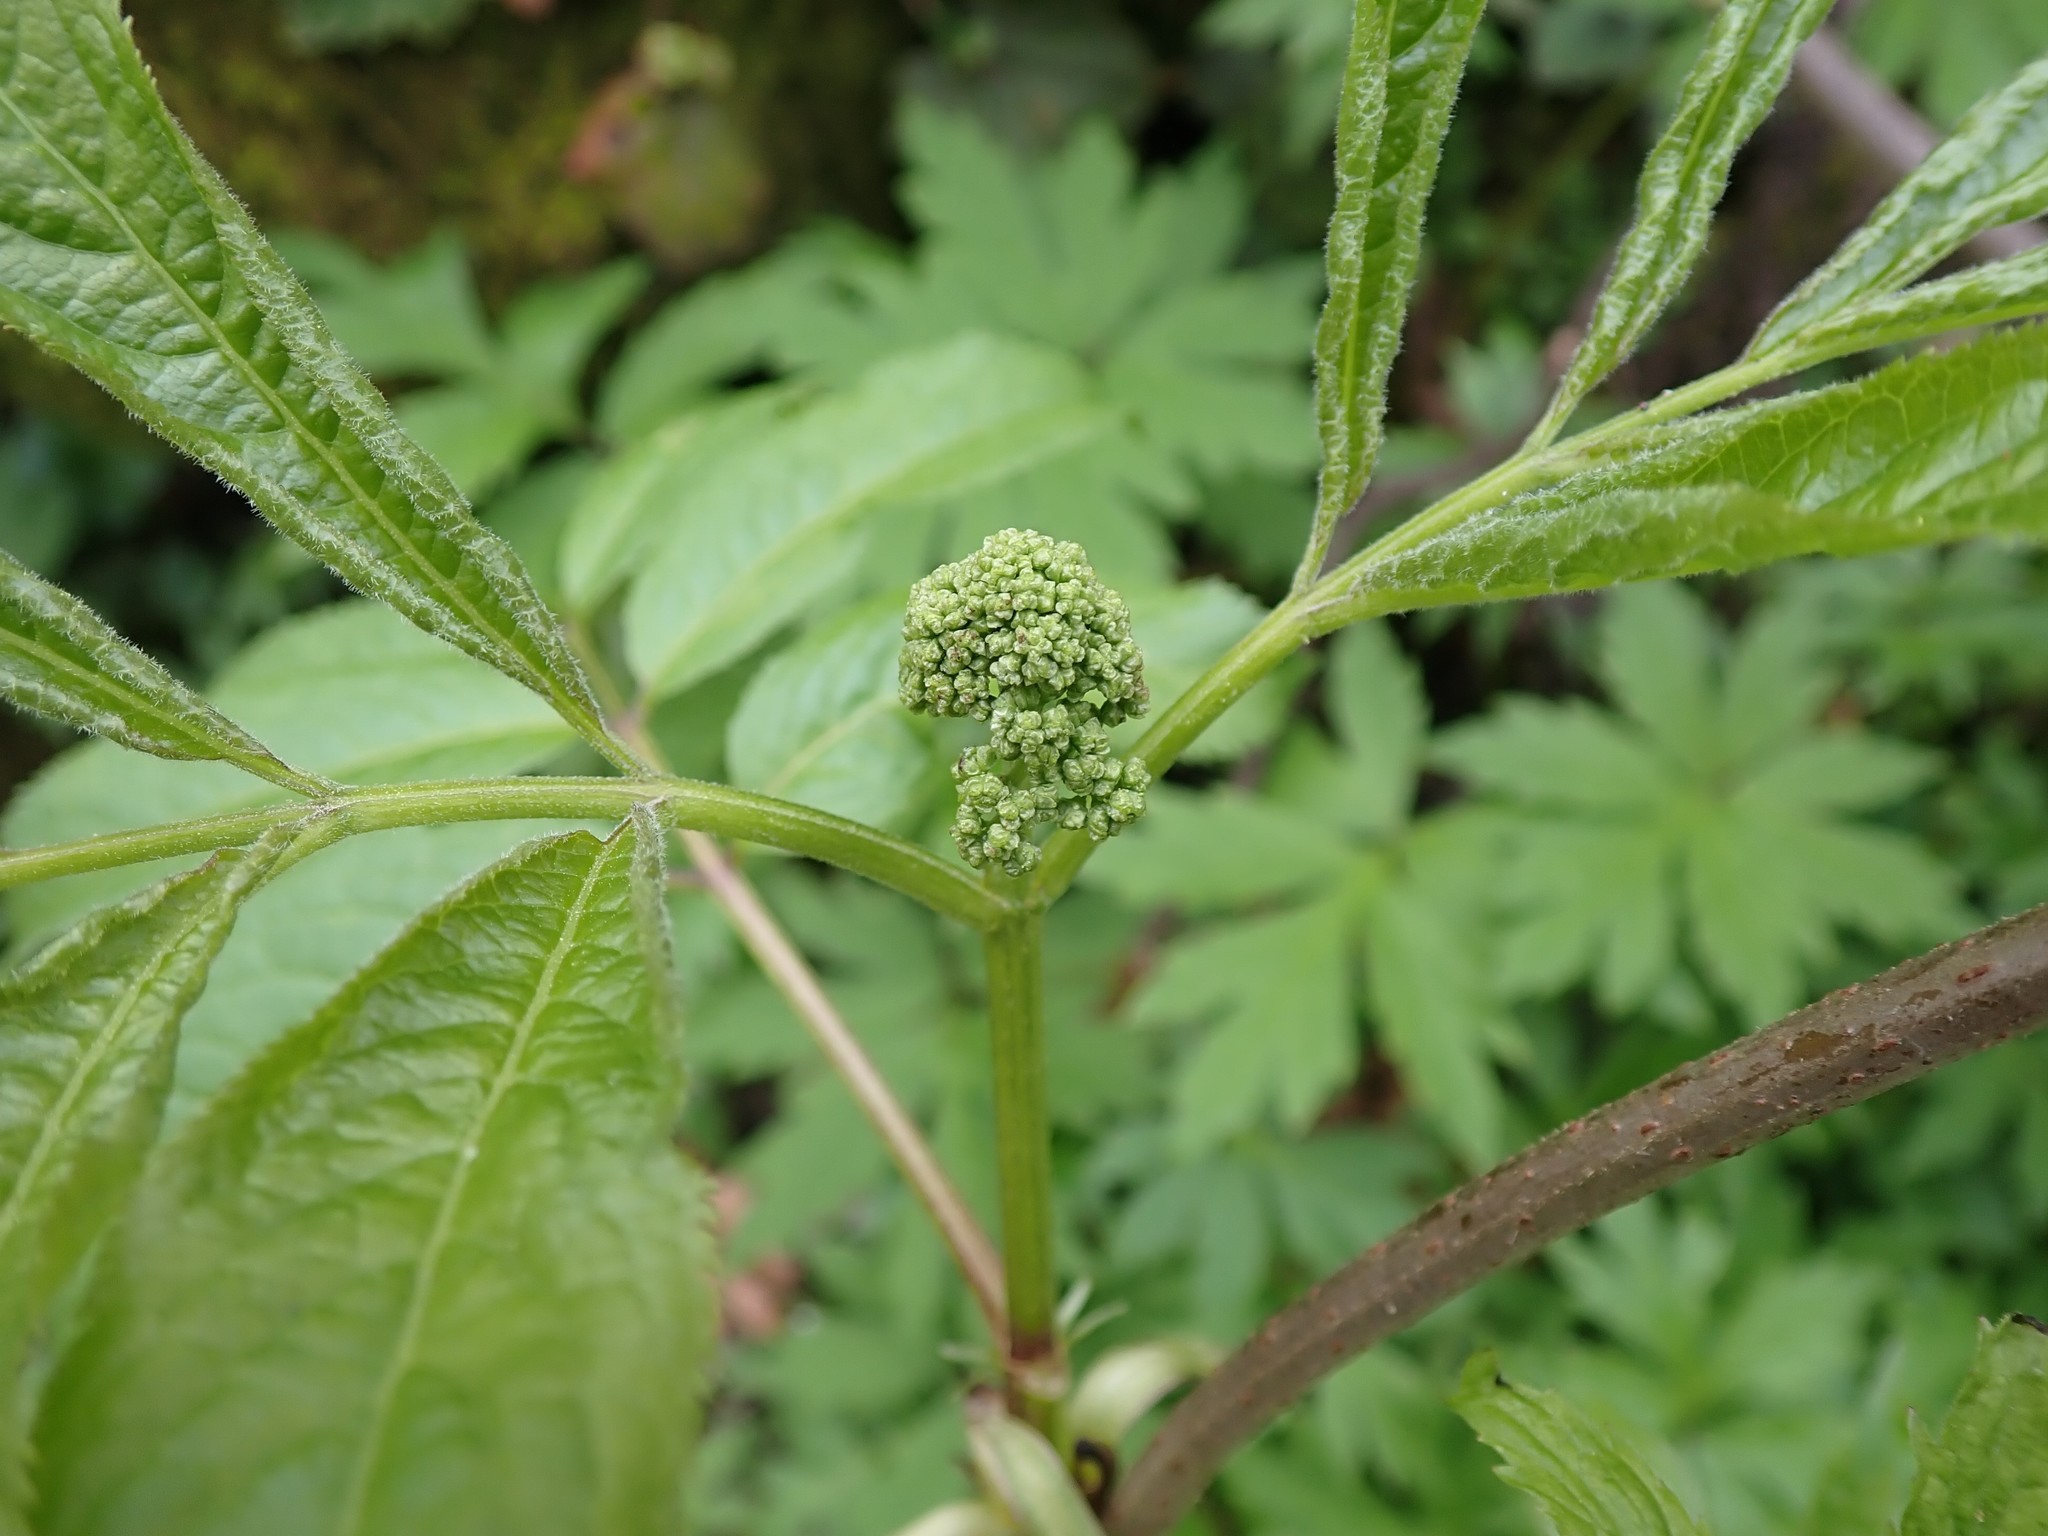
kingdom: Plantae
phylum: Tracheophyta
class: Magnoliopsida
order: Dipsacales
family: Viburnaceae
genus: Sambucus
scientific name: Sambucus racemosa
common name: Red-berried elder
